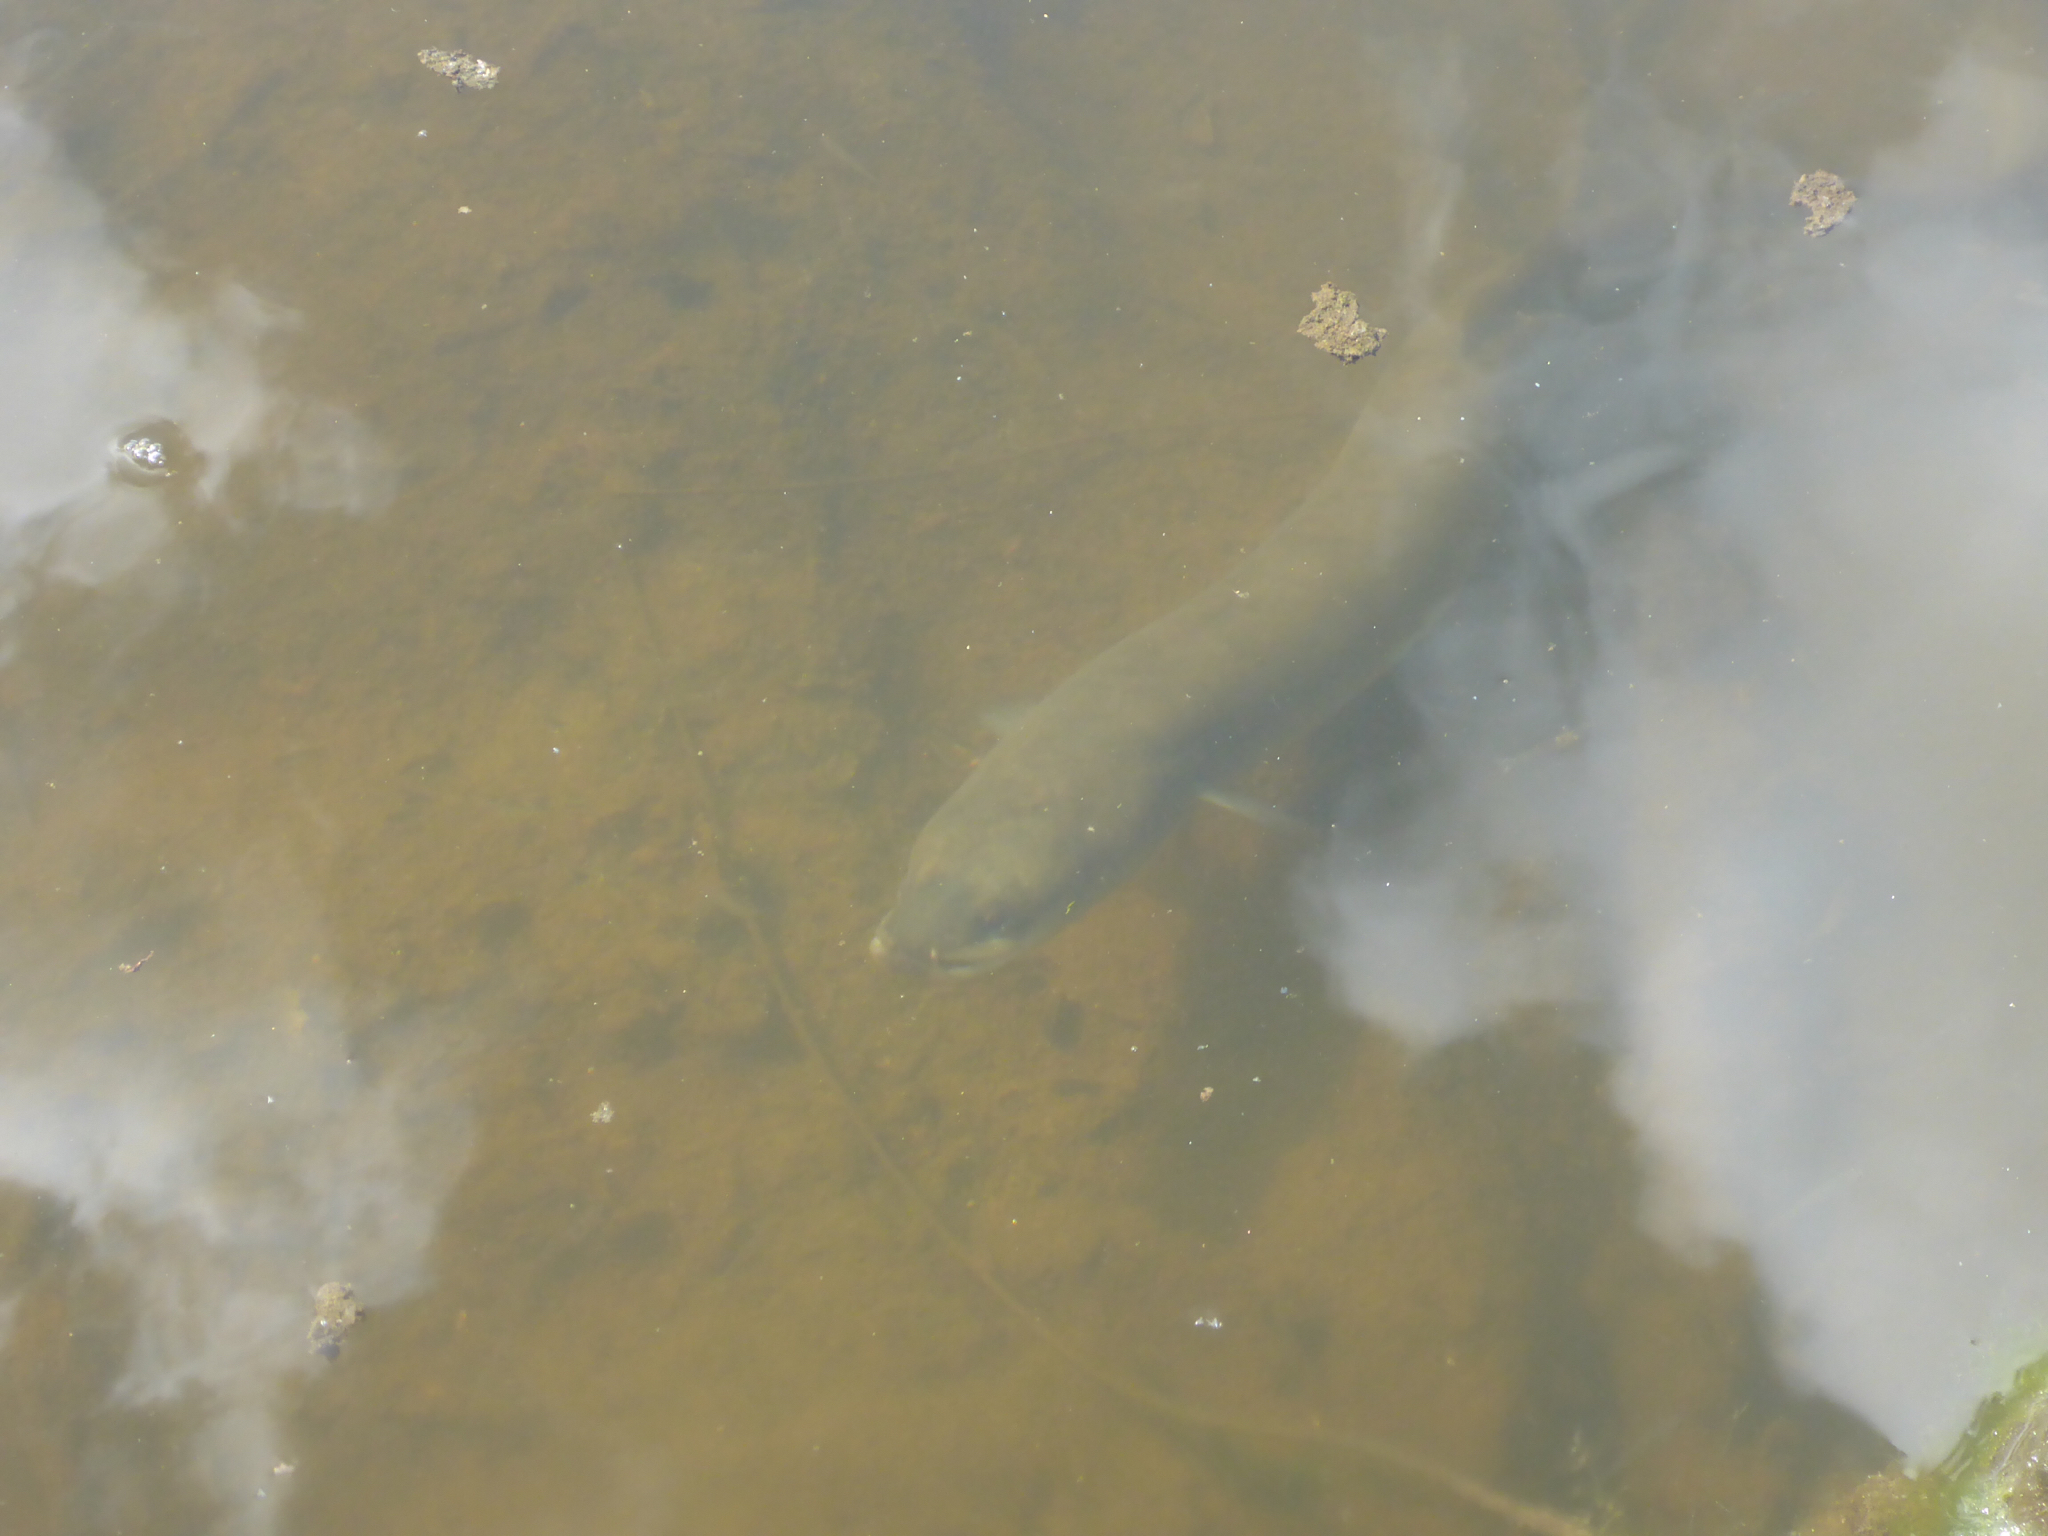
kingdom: Animalia
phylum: Chordata
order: Anguilliformes
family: Anguillidae
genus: Anguilla
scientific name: Anguilla australis
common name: Shortfin eel
